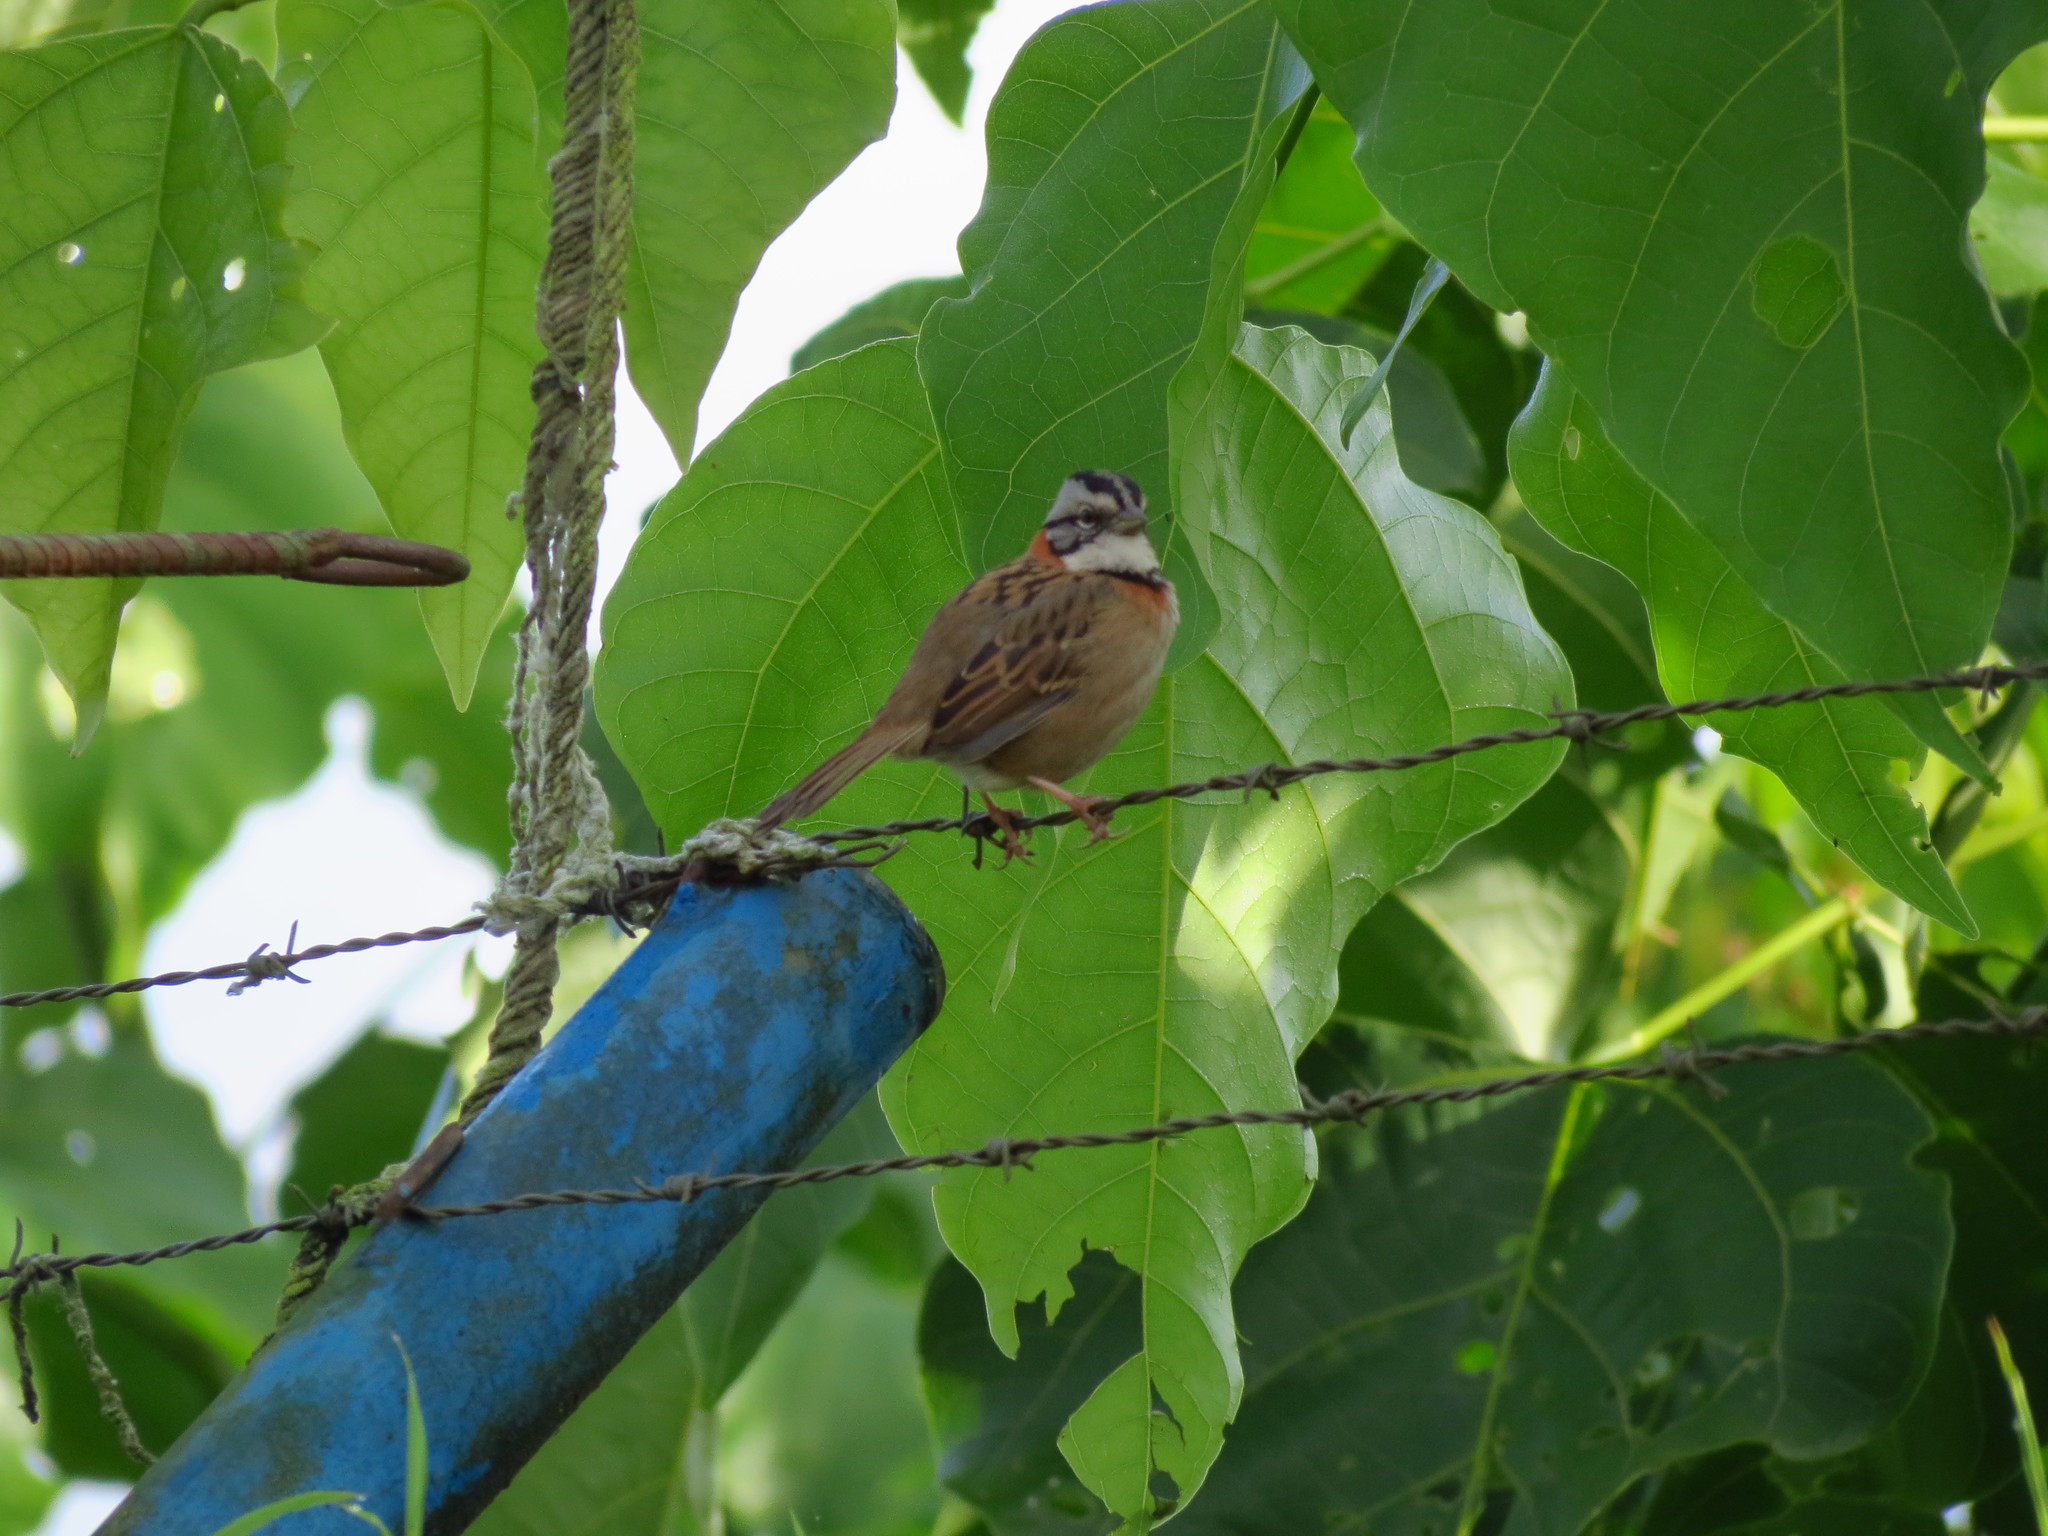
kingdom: Animalia
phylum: Chordata
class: Aves
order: Passeriformes
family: Passerellidae
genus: Zonotrichia
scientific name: Zonotrichia capensis
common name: Rufous-collared sparrow
